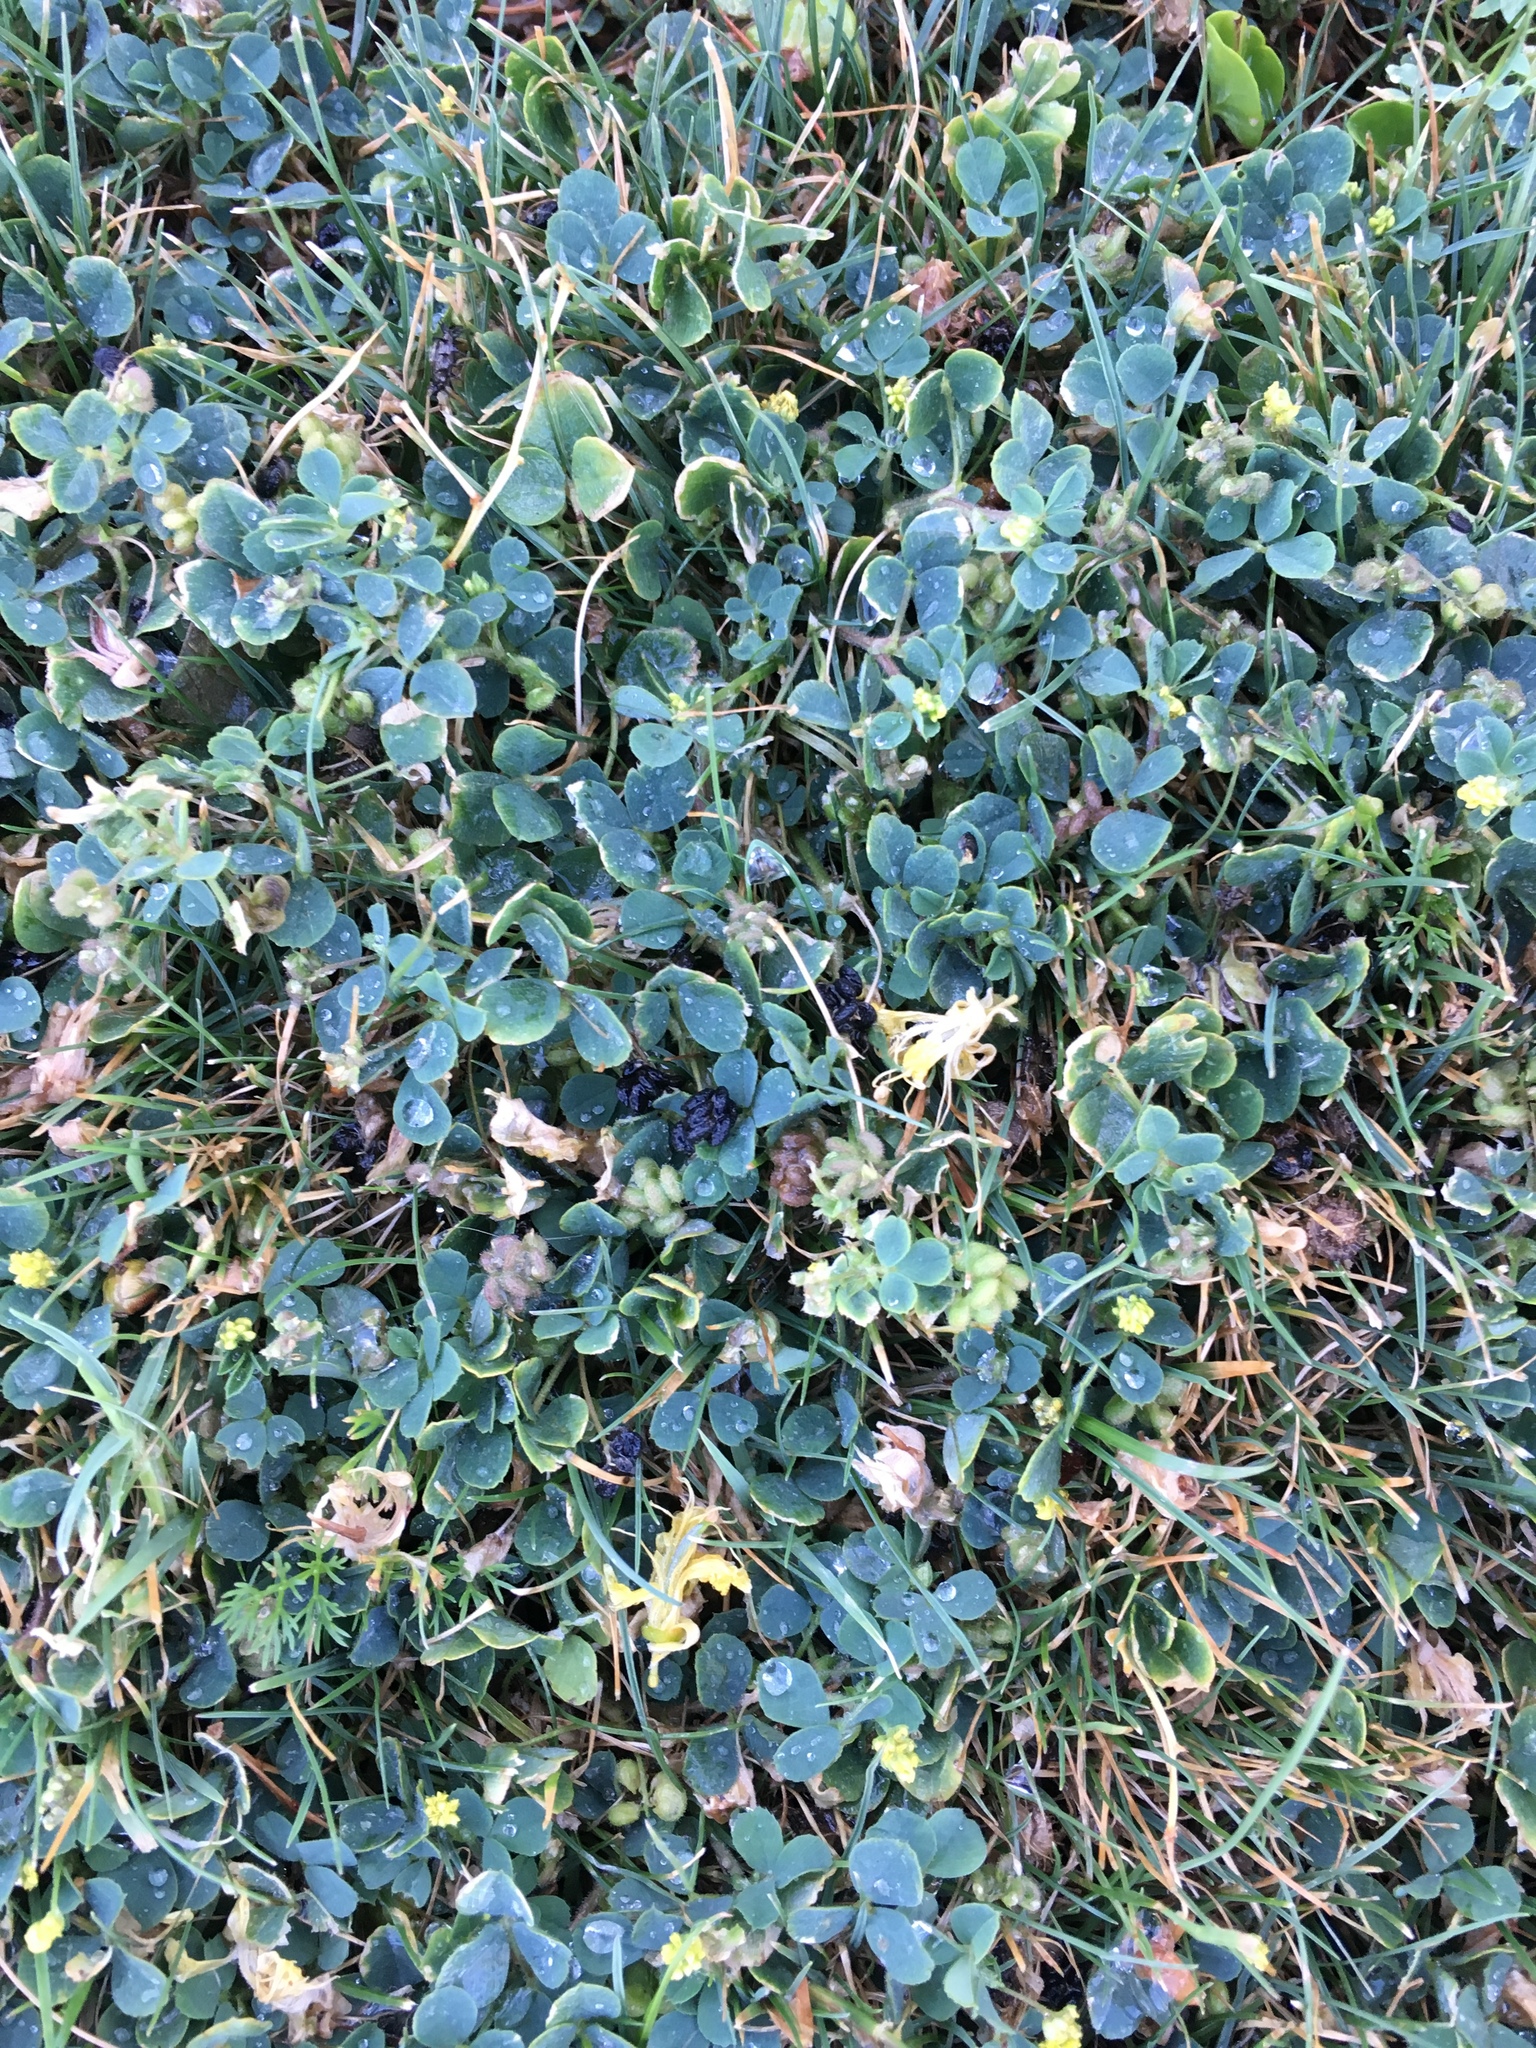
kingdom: Plantae
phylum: Tracheophyta
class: Magnoliopsida
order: Fabales
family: Fabaceae
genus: Medicago
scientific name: Medicago lupulina
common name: Black medick
